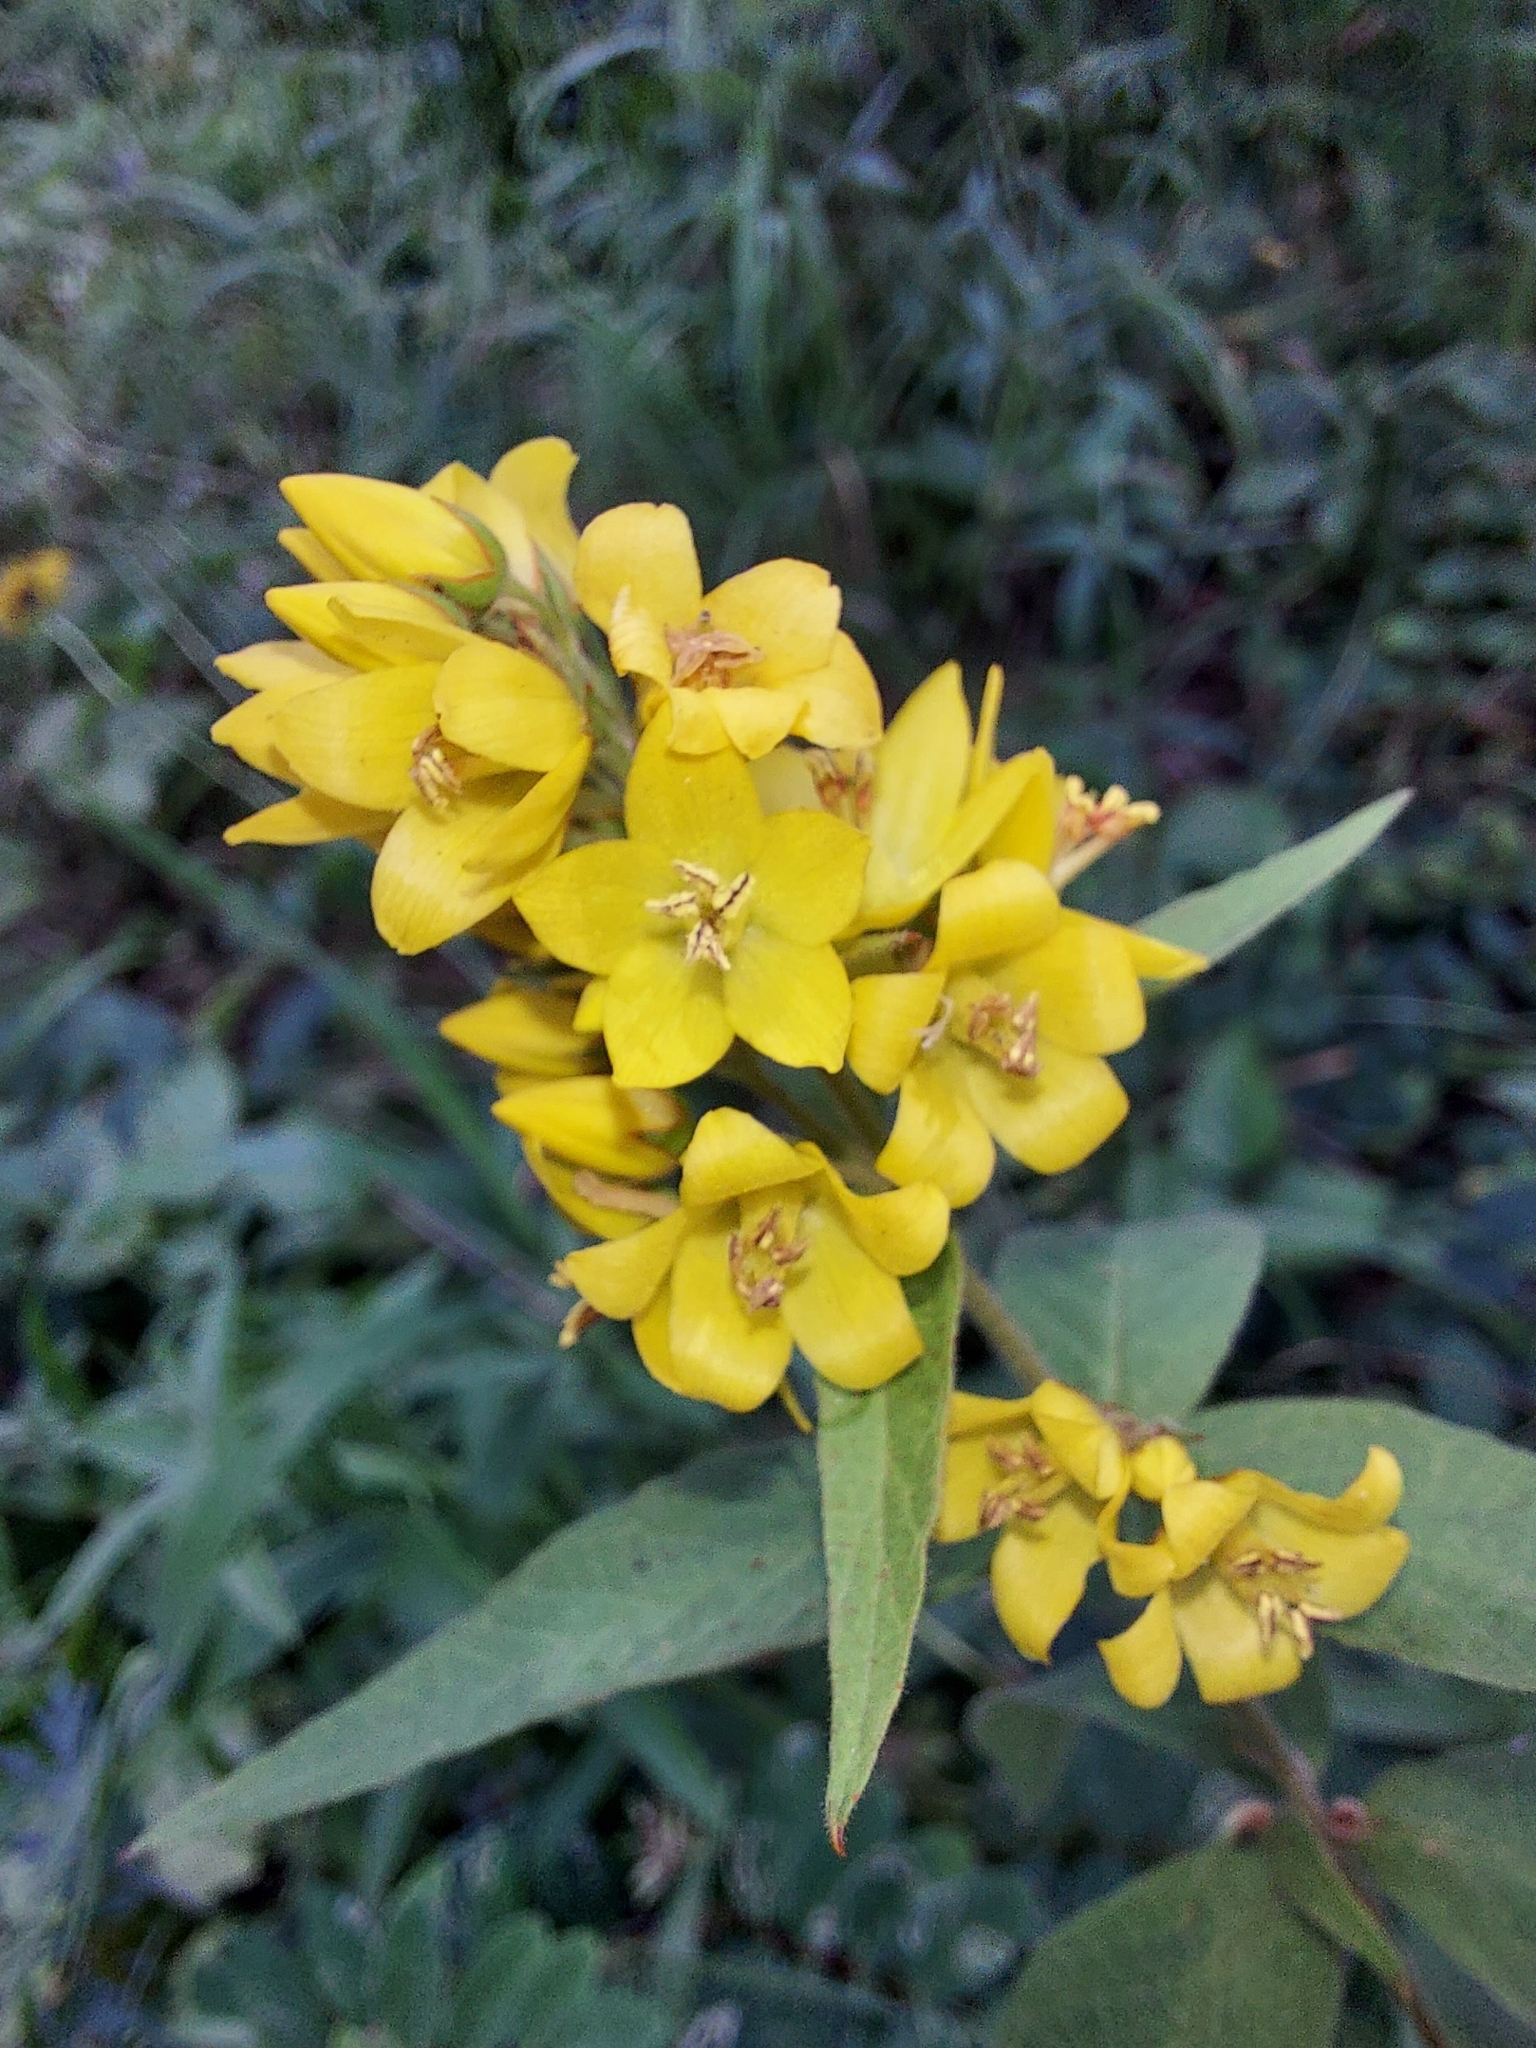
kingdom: Plantae
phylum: Tracheophyta
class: Magnoliopsida
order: Ericales
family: Primulaceae
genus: Lysimachia
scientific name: Lysimachia vulgaris
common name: Yellow loosestrife
